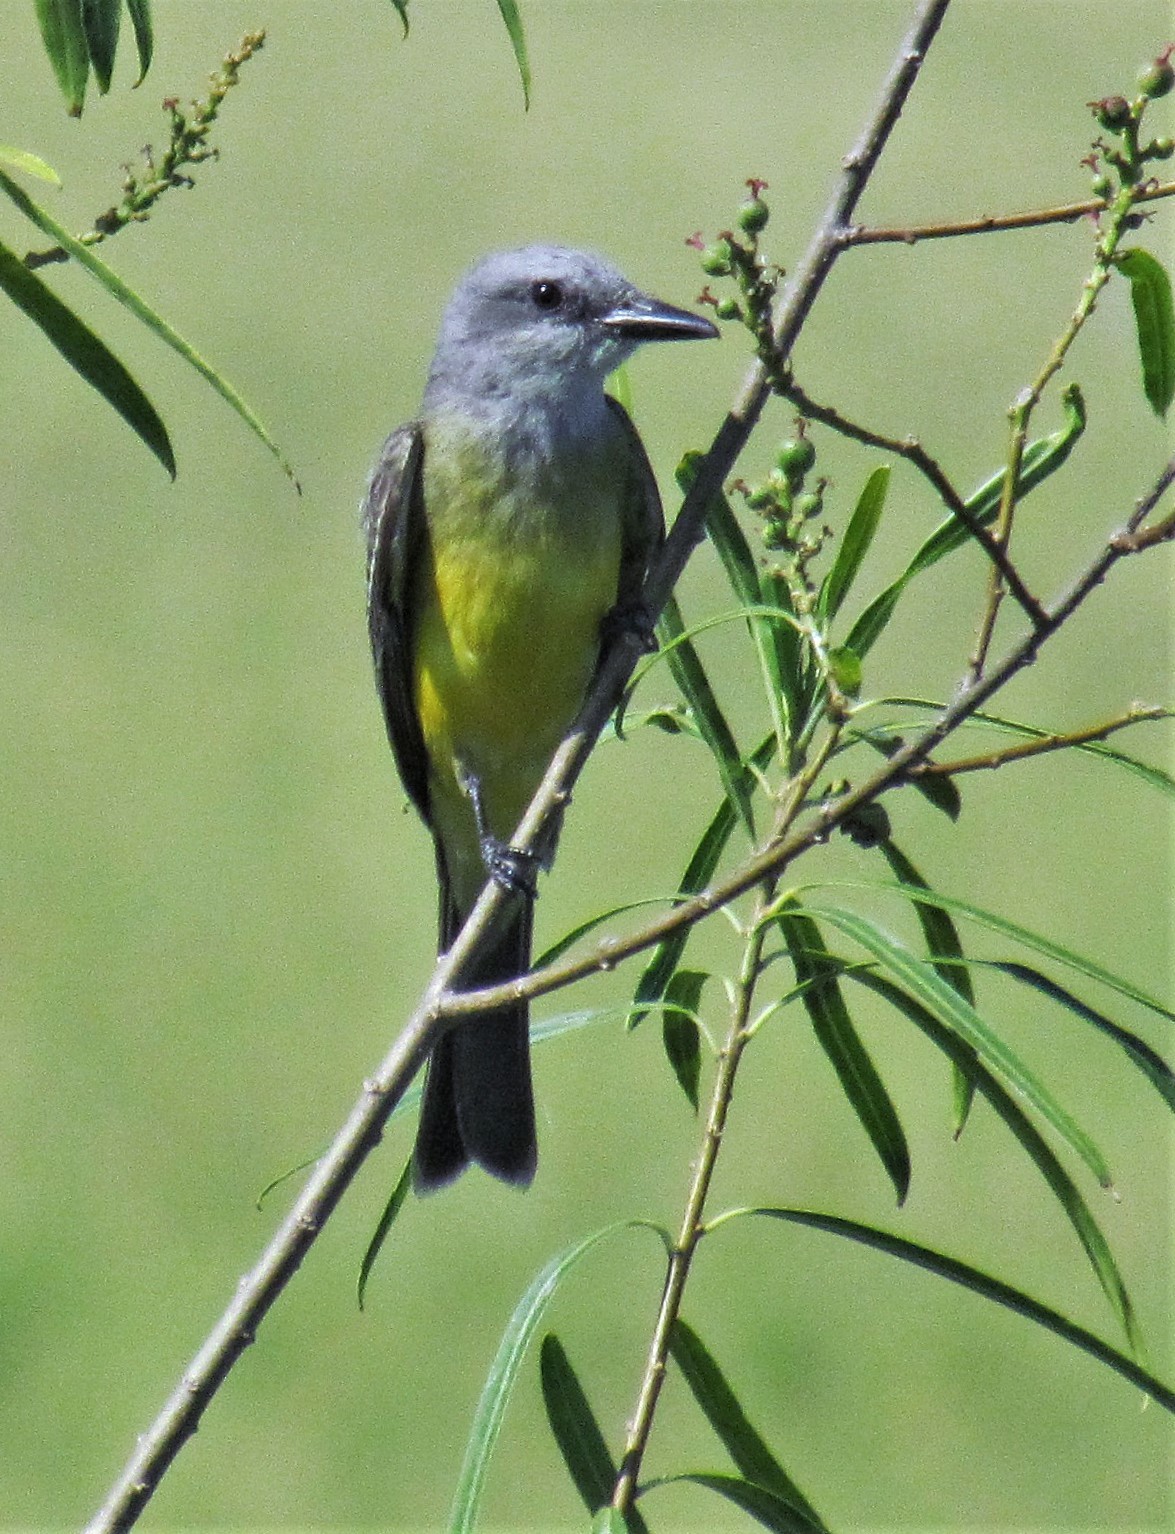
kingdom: Animalia
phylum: Chordata
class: Aves
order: Passeriformes
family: Tyrannidae
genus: Tyrannus
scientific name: Tyrannus melancholicus
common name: Tropical kingbird
